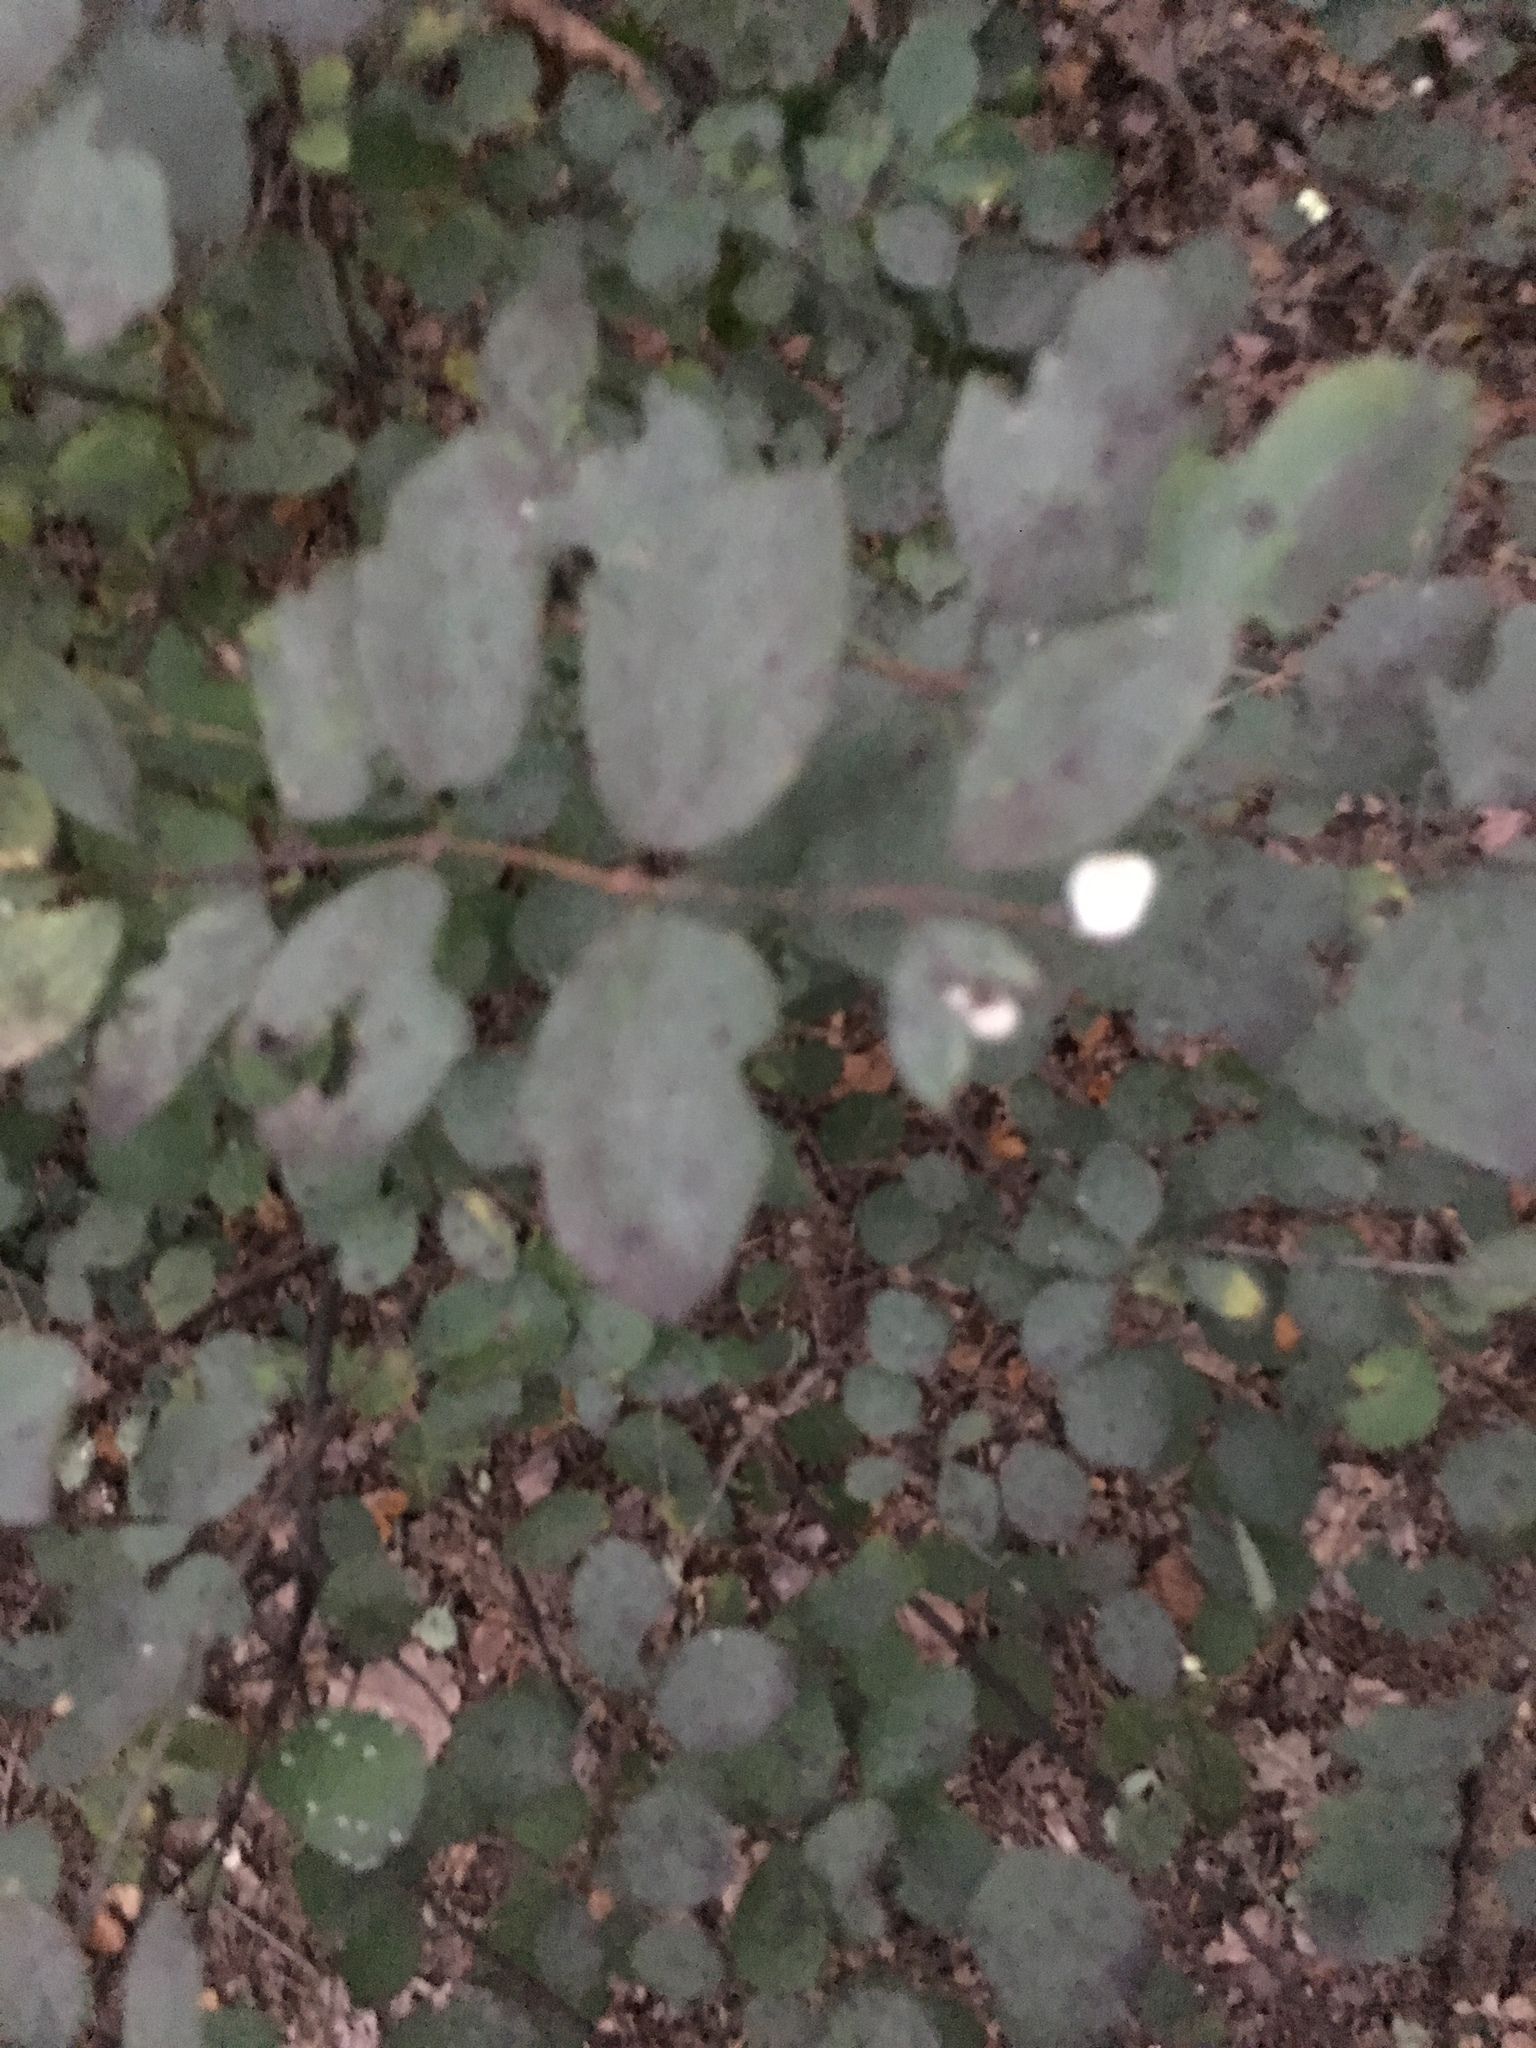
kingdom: Plantae
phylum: Tracheophyta
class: Magnoliopsida
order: Dipsacales
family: Caprifoliaceae
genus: Symphoricarpos
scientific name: Symphoricarpos albus
